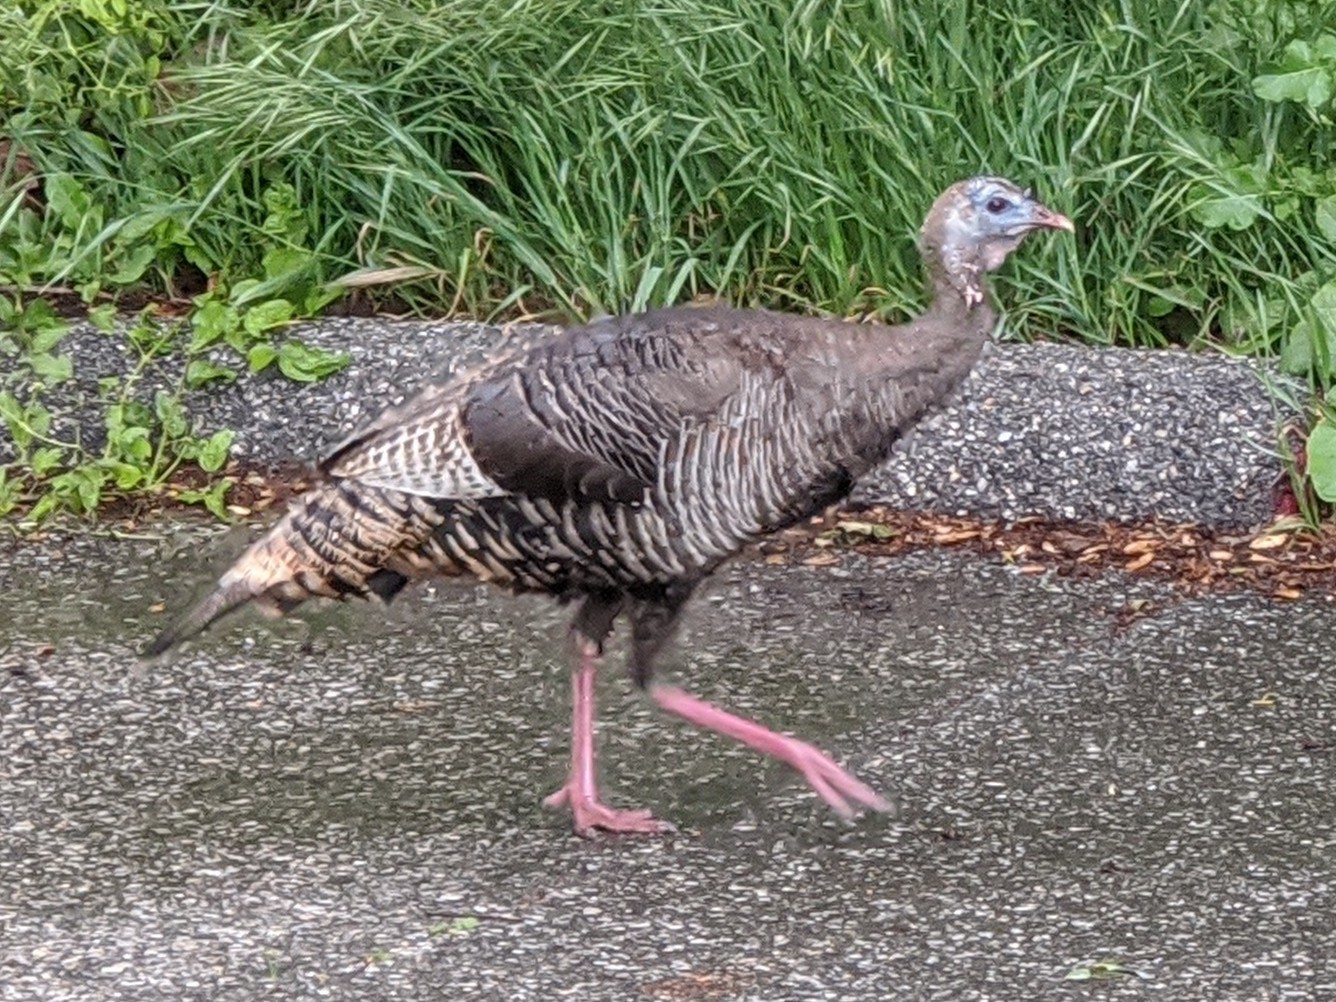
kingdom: Animalia
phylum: Chordata
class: Aves
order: Galliformes
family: Phasianidae
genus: Meleagris
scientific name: Meleagris gallopavo
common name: Wild turkey
